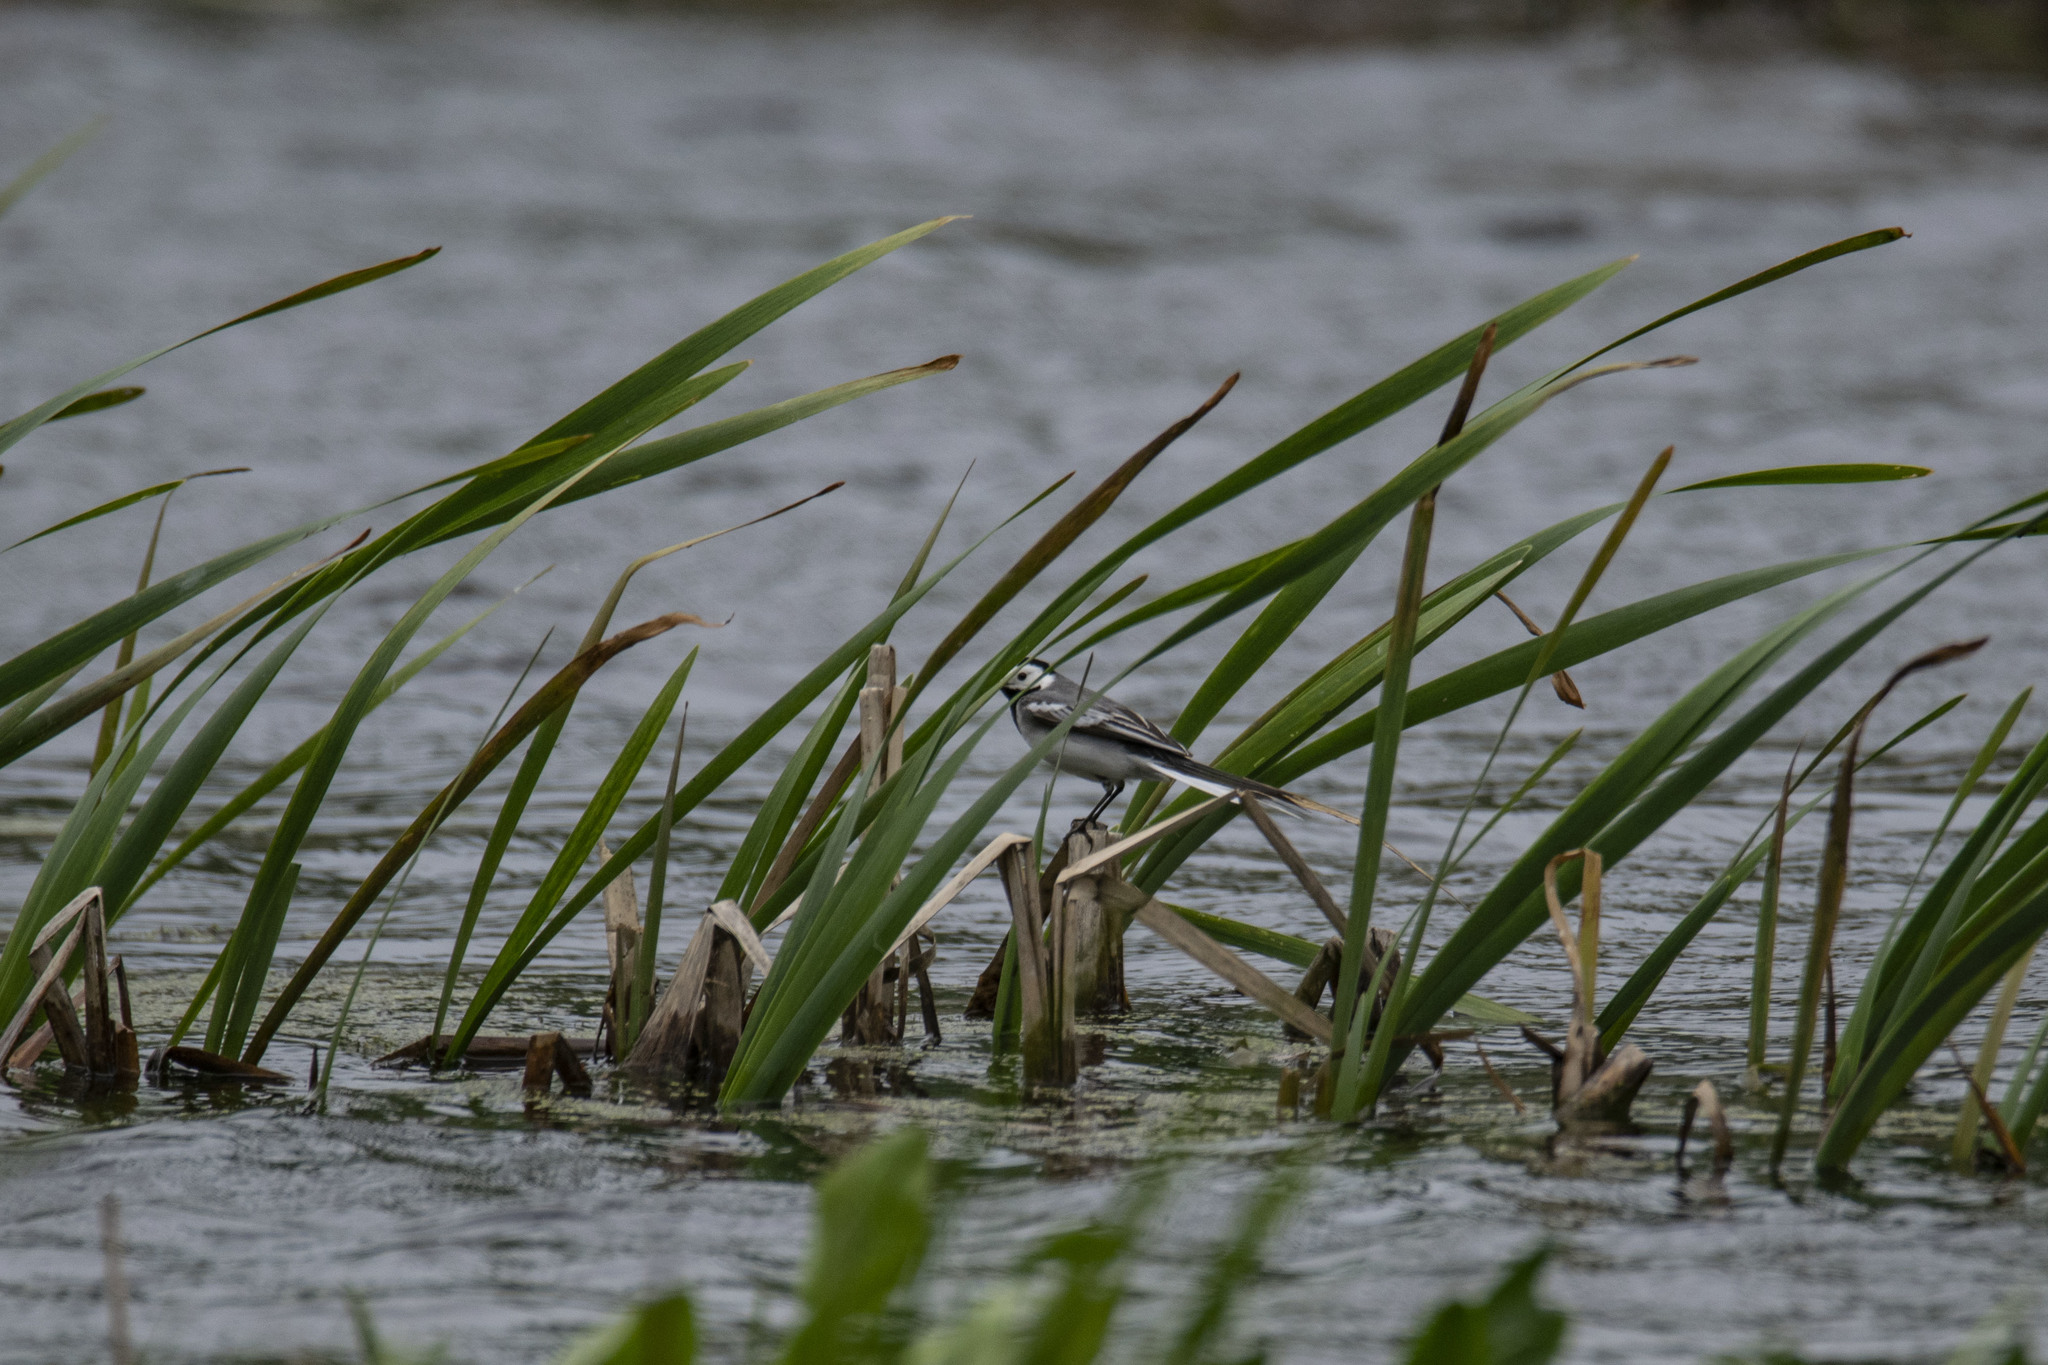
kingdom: Animalia
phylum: Chordata
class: Aves
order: Passeriformes
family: Motacillidae
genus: Motacilla
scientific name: Motacilla alba
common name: White wagtail
